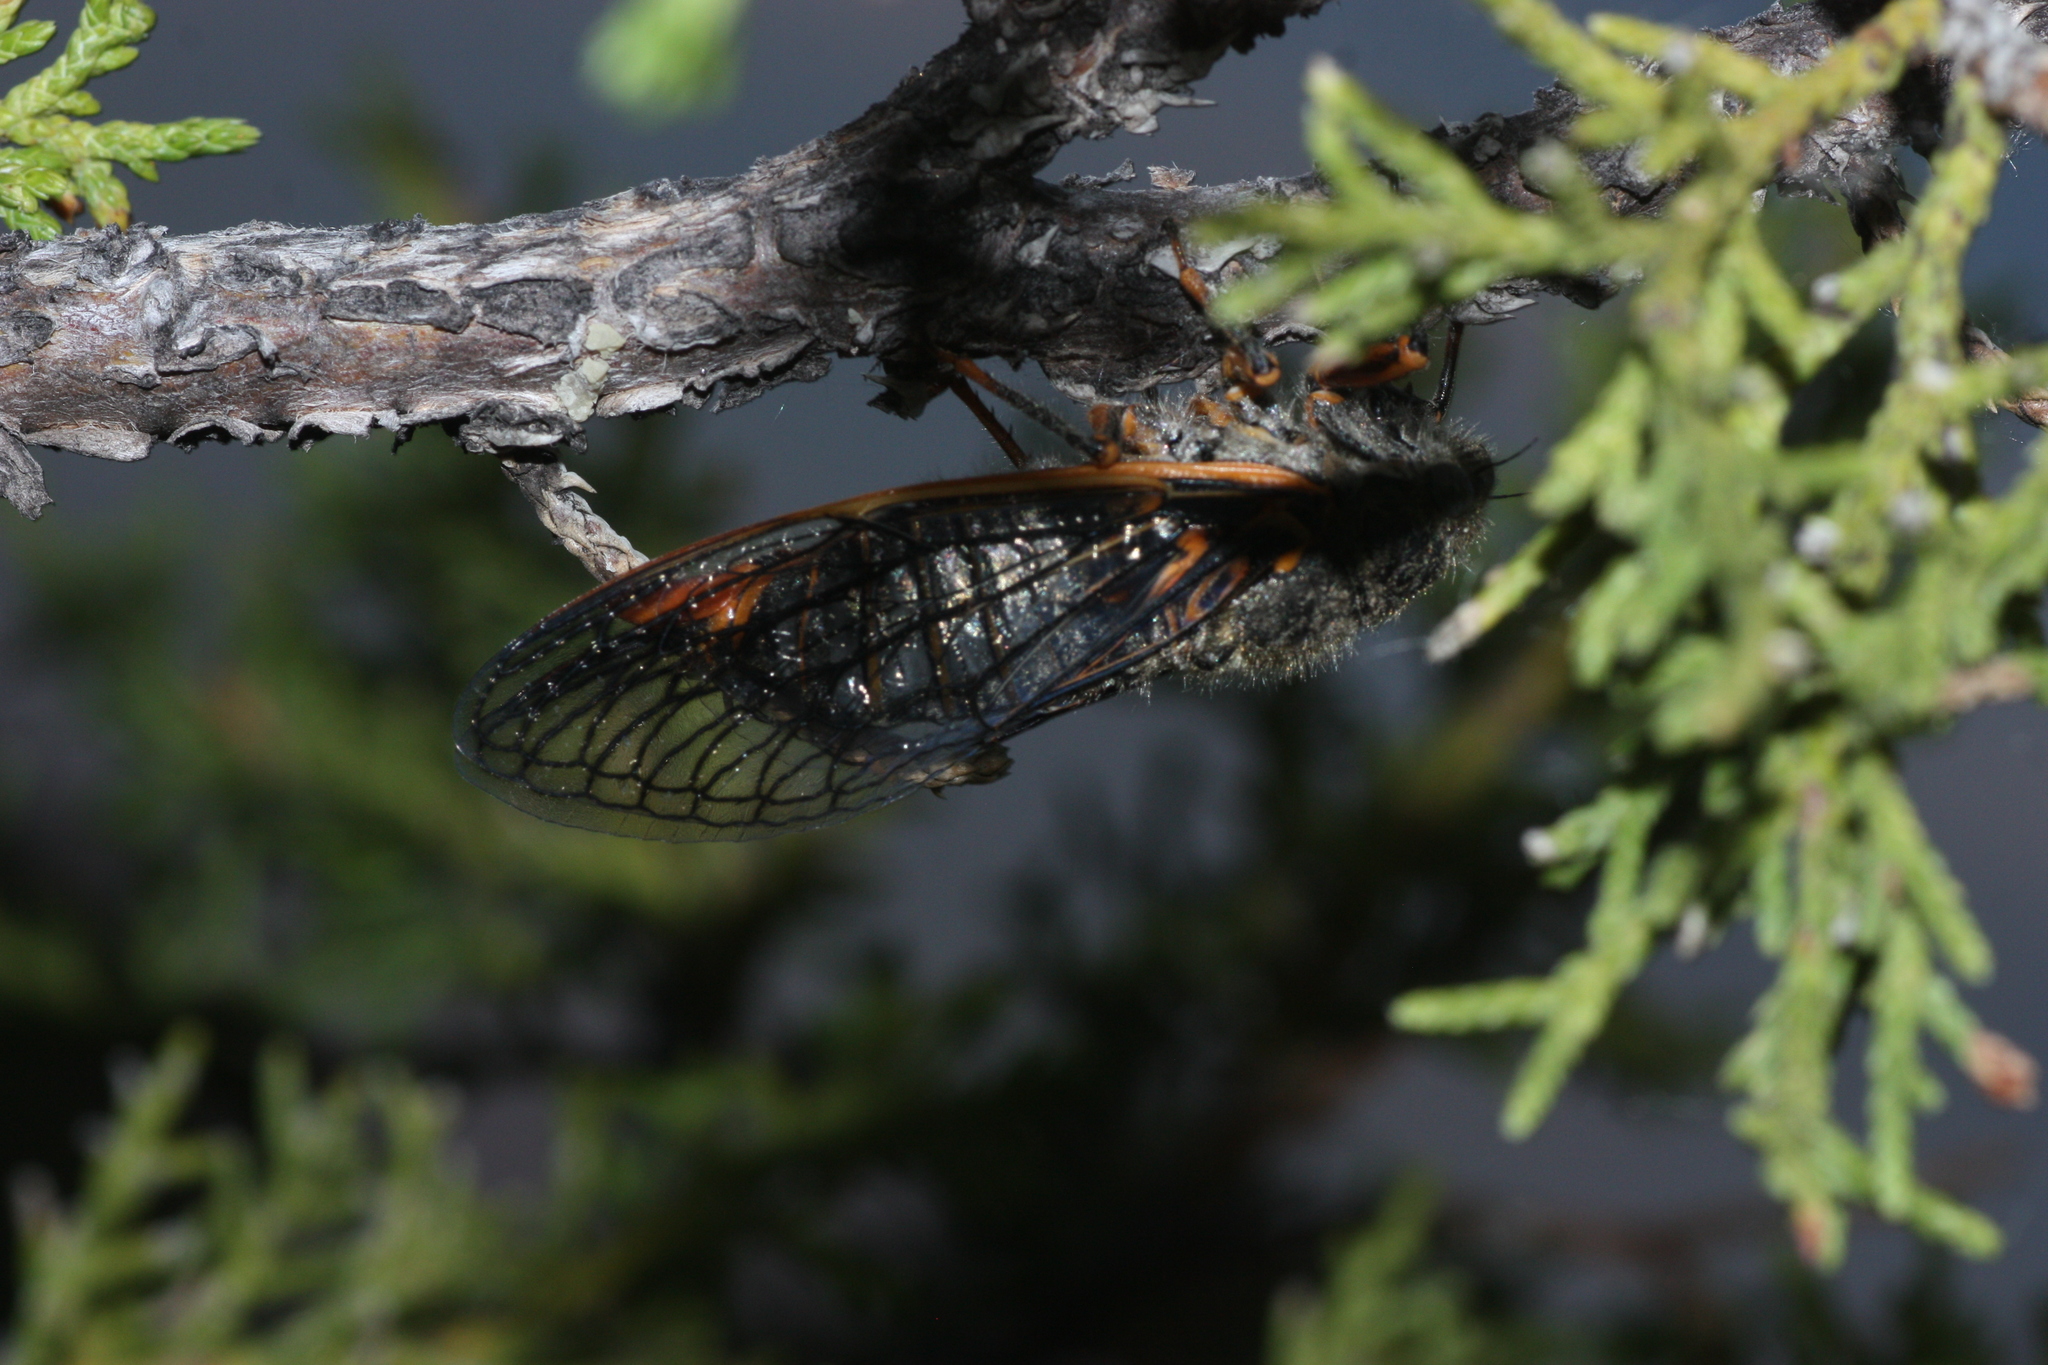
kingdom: Animalia
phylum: Arthropoda
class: Insecta
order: Hemiptera
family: Cicadidae
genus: Okanagana
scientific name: Okanagana magnifica
